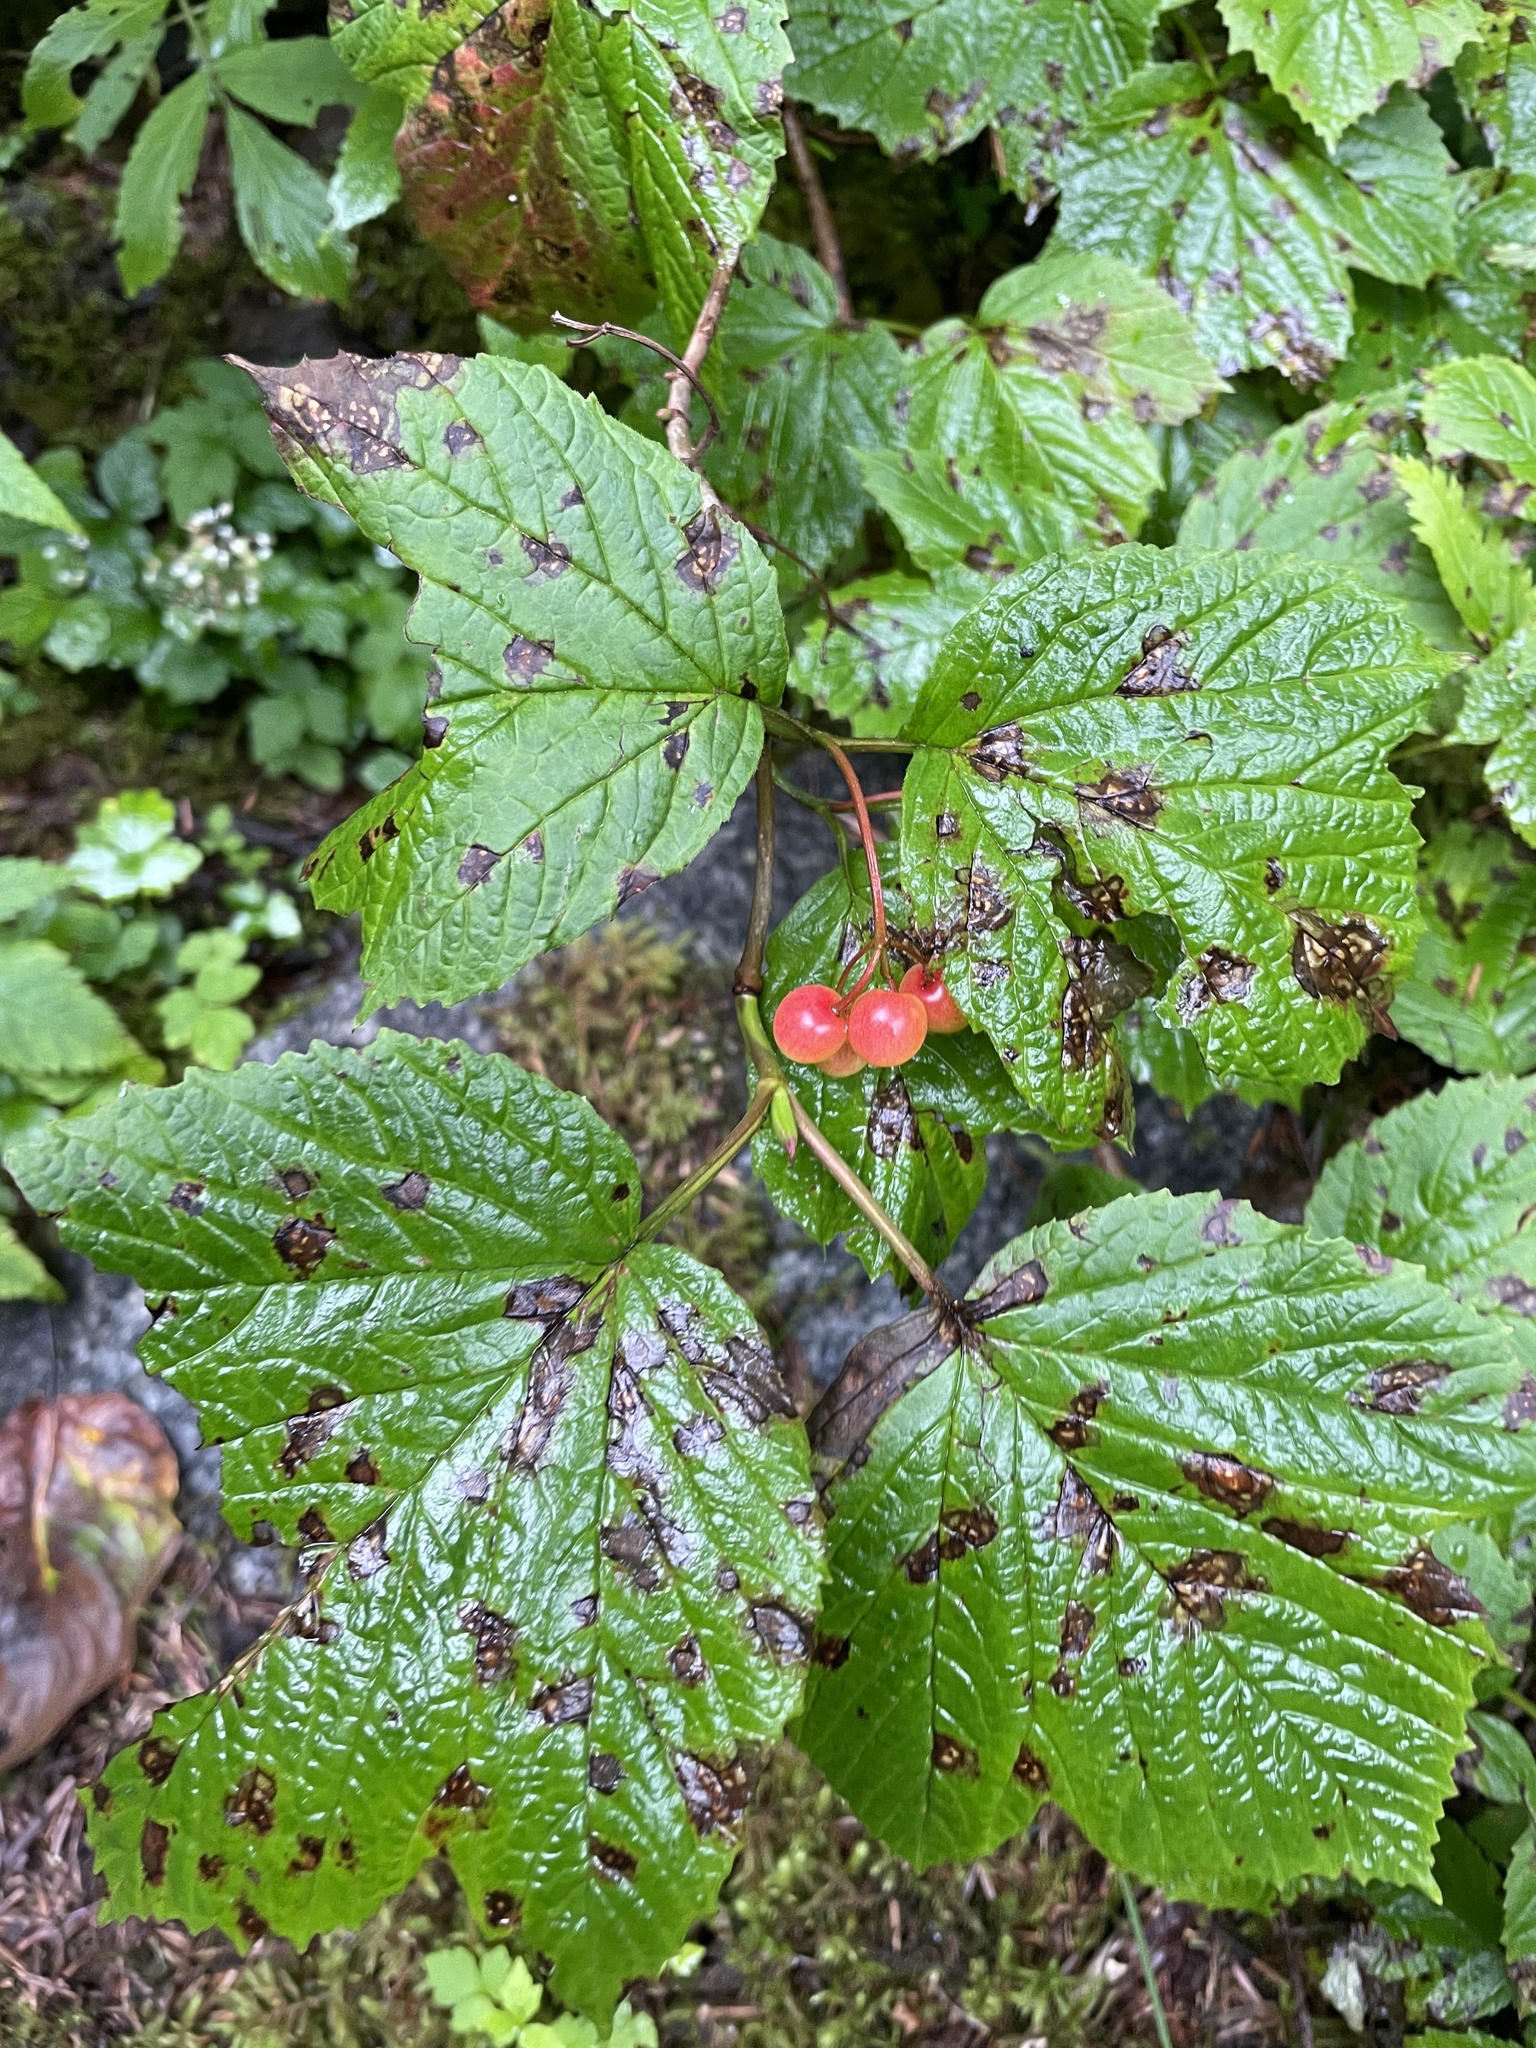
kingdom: Plantae
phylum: Tracheophyta
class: Magnoliopsida
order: Dipsacales
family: Viburnaceae
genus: Viburnum
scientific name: Viburnum edule
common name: Mooseberry
